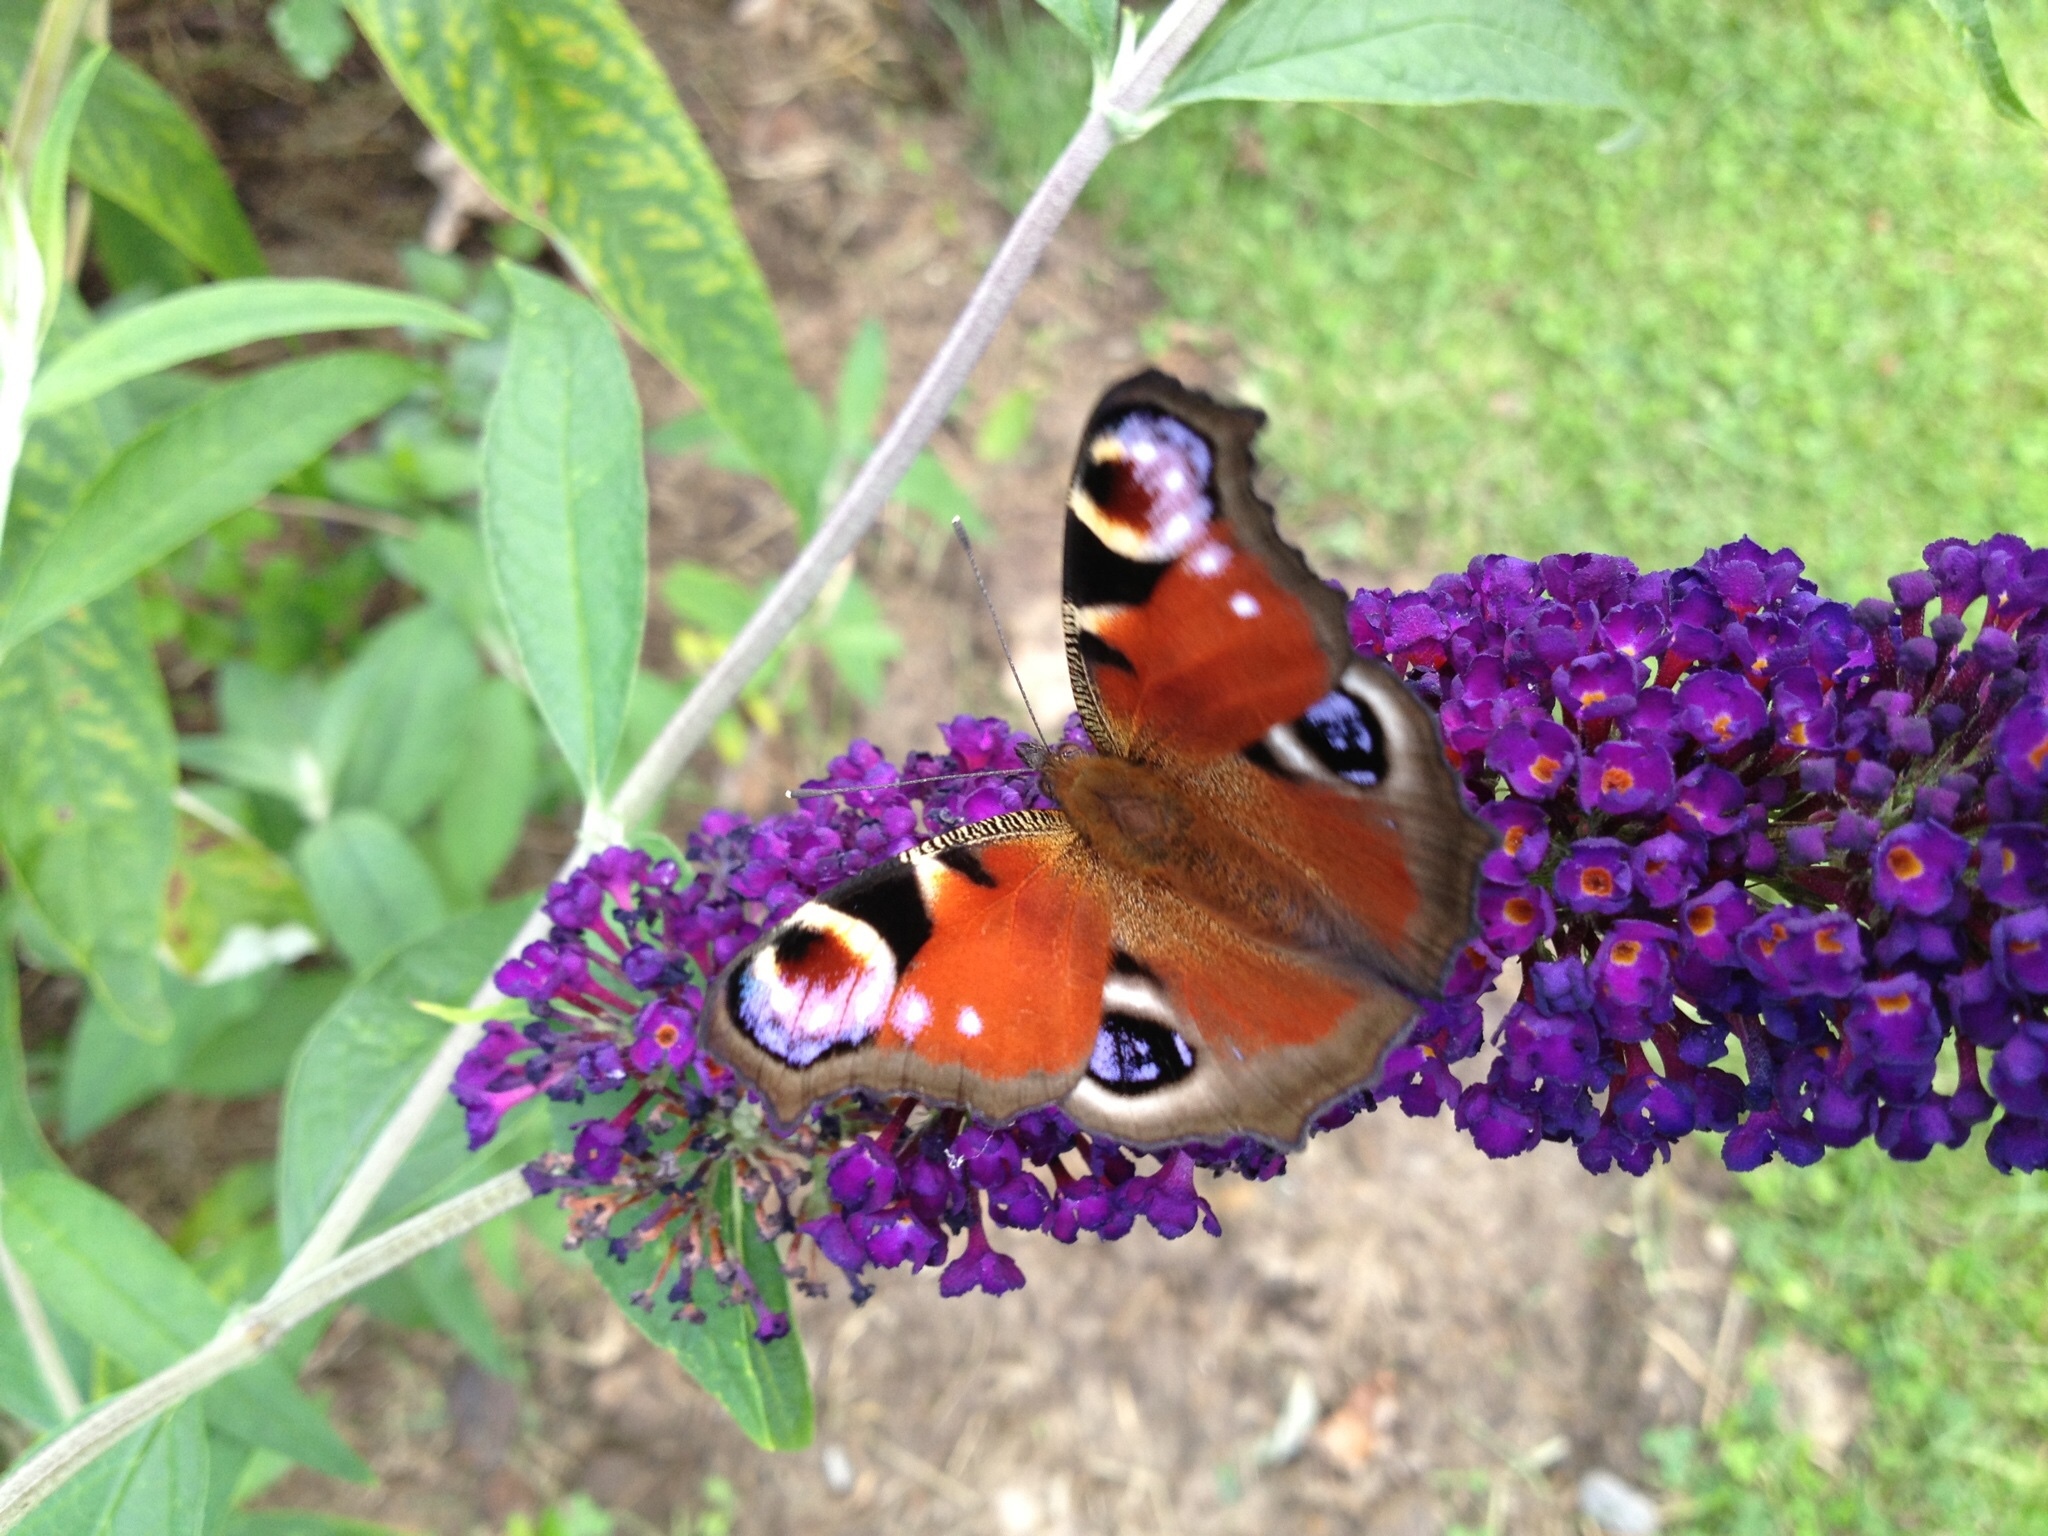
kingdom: Animalia
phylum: Arthropoda
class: Insecta
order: Lepidoptera
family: Nymphalidae
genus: Aglais
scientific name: Aglais io
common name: Peacock
